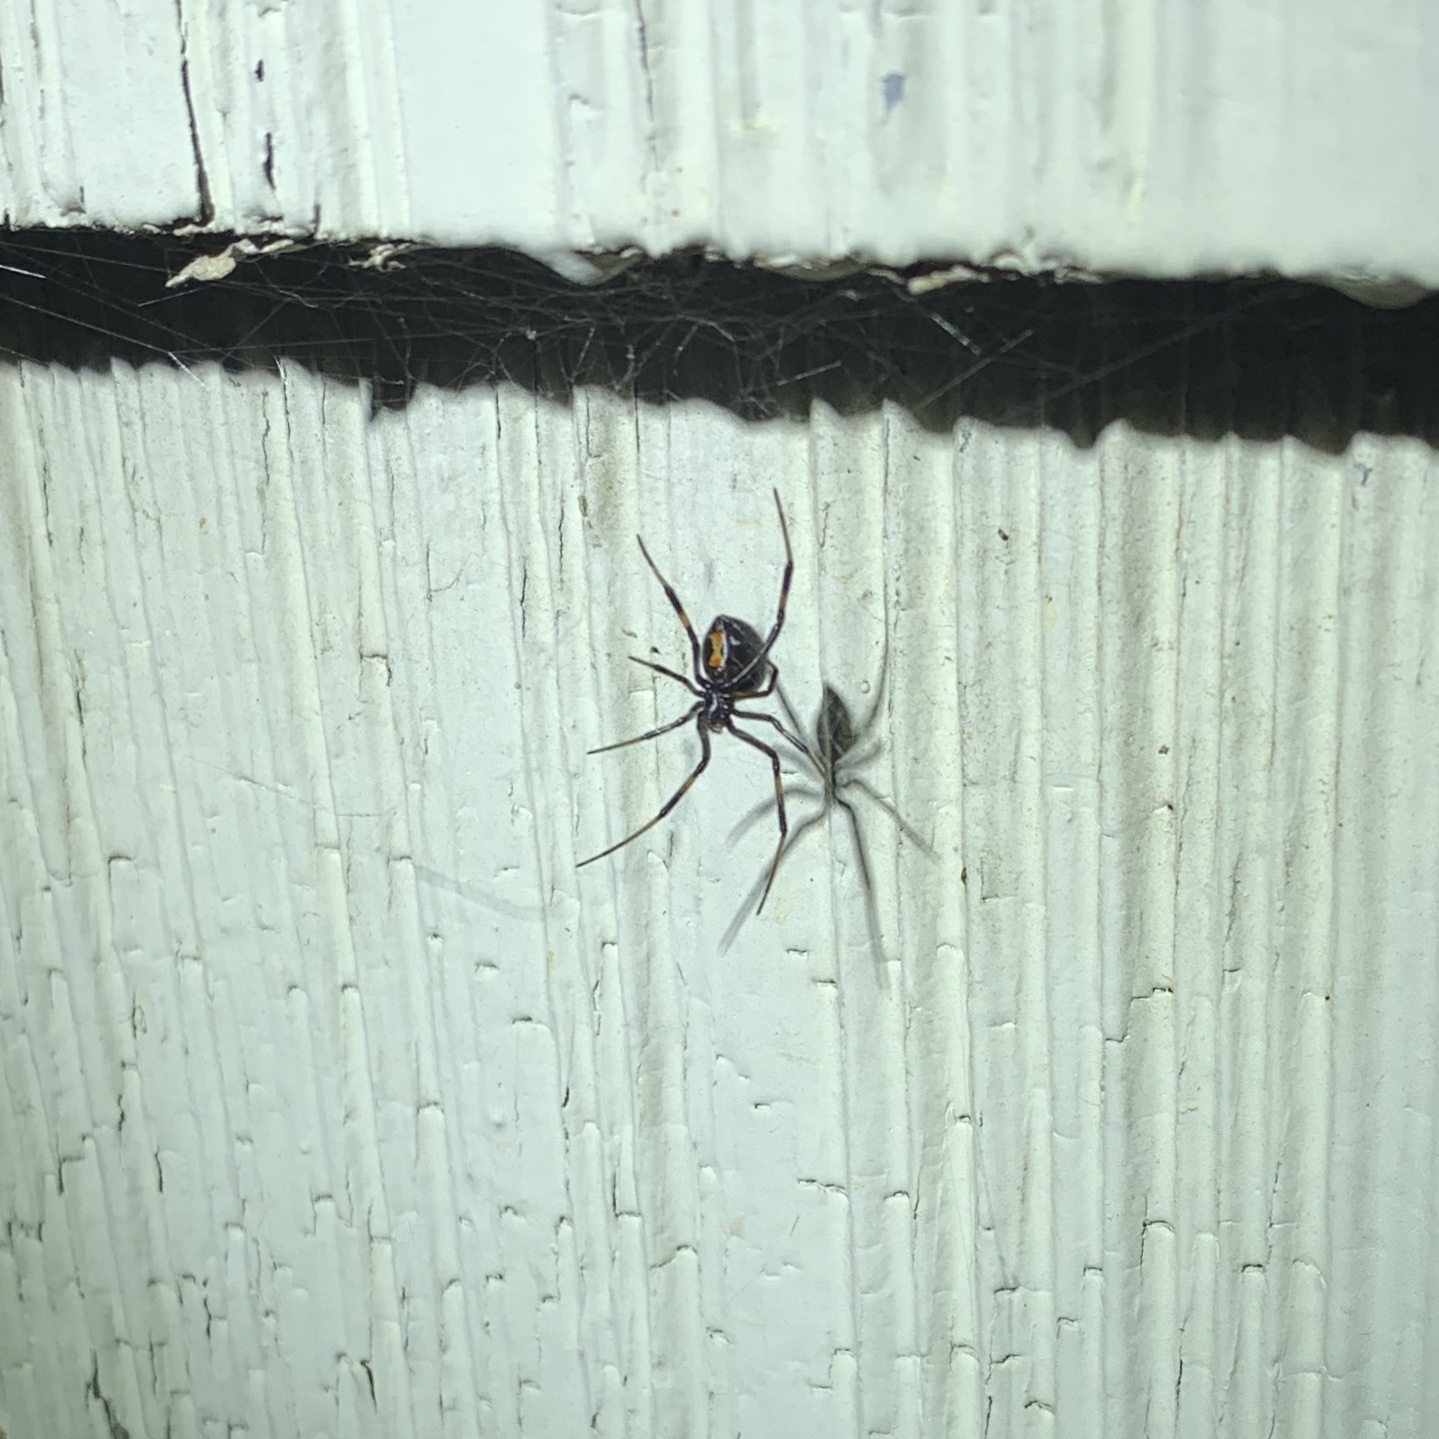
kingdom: Animalia
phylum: Arthropoda
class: Arachnida
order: Araneae
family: Theridiidae
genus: Latrodectus
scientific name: Latrodectus hesperus
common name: Western black widow
